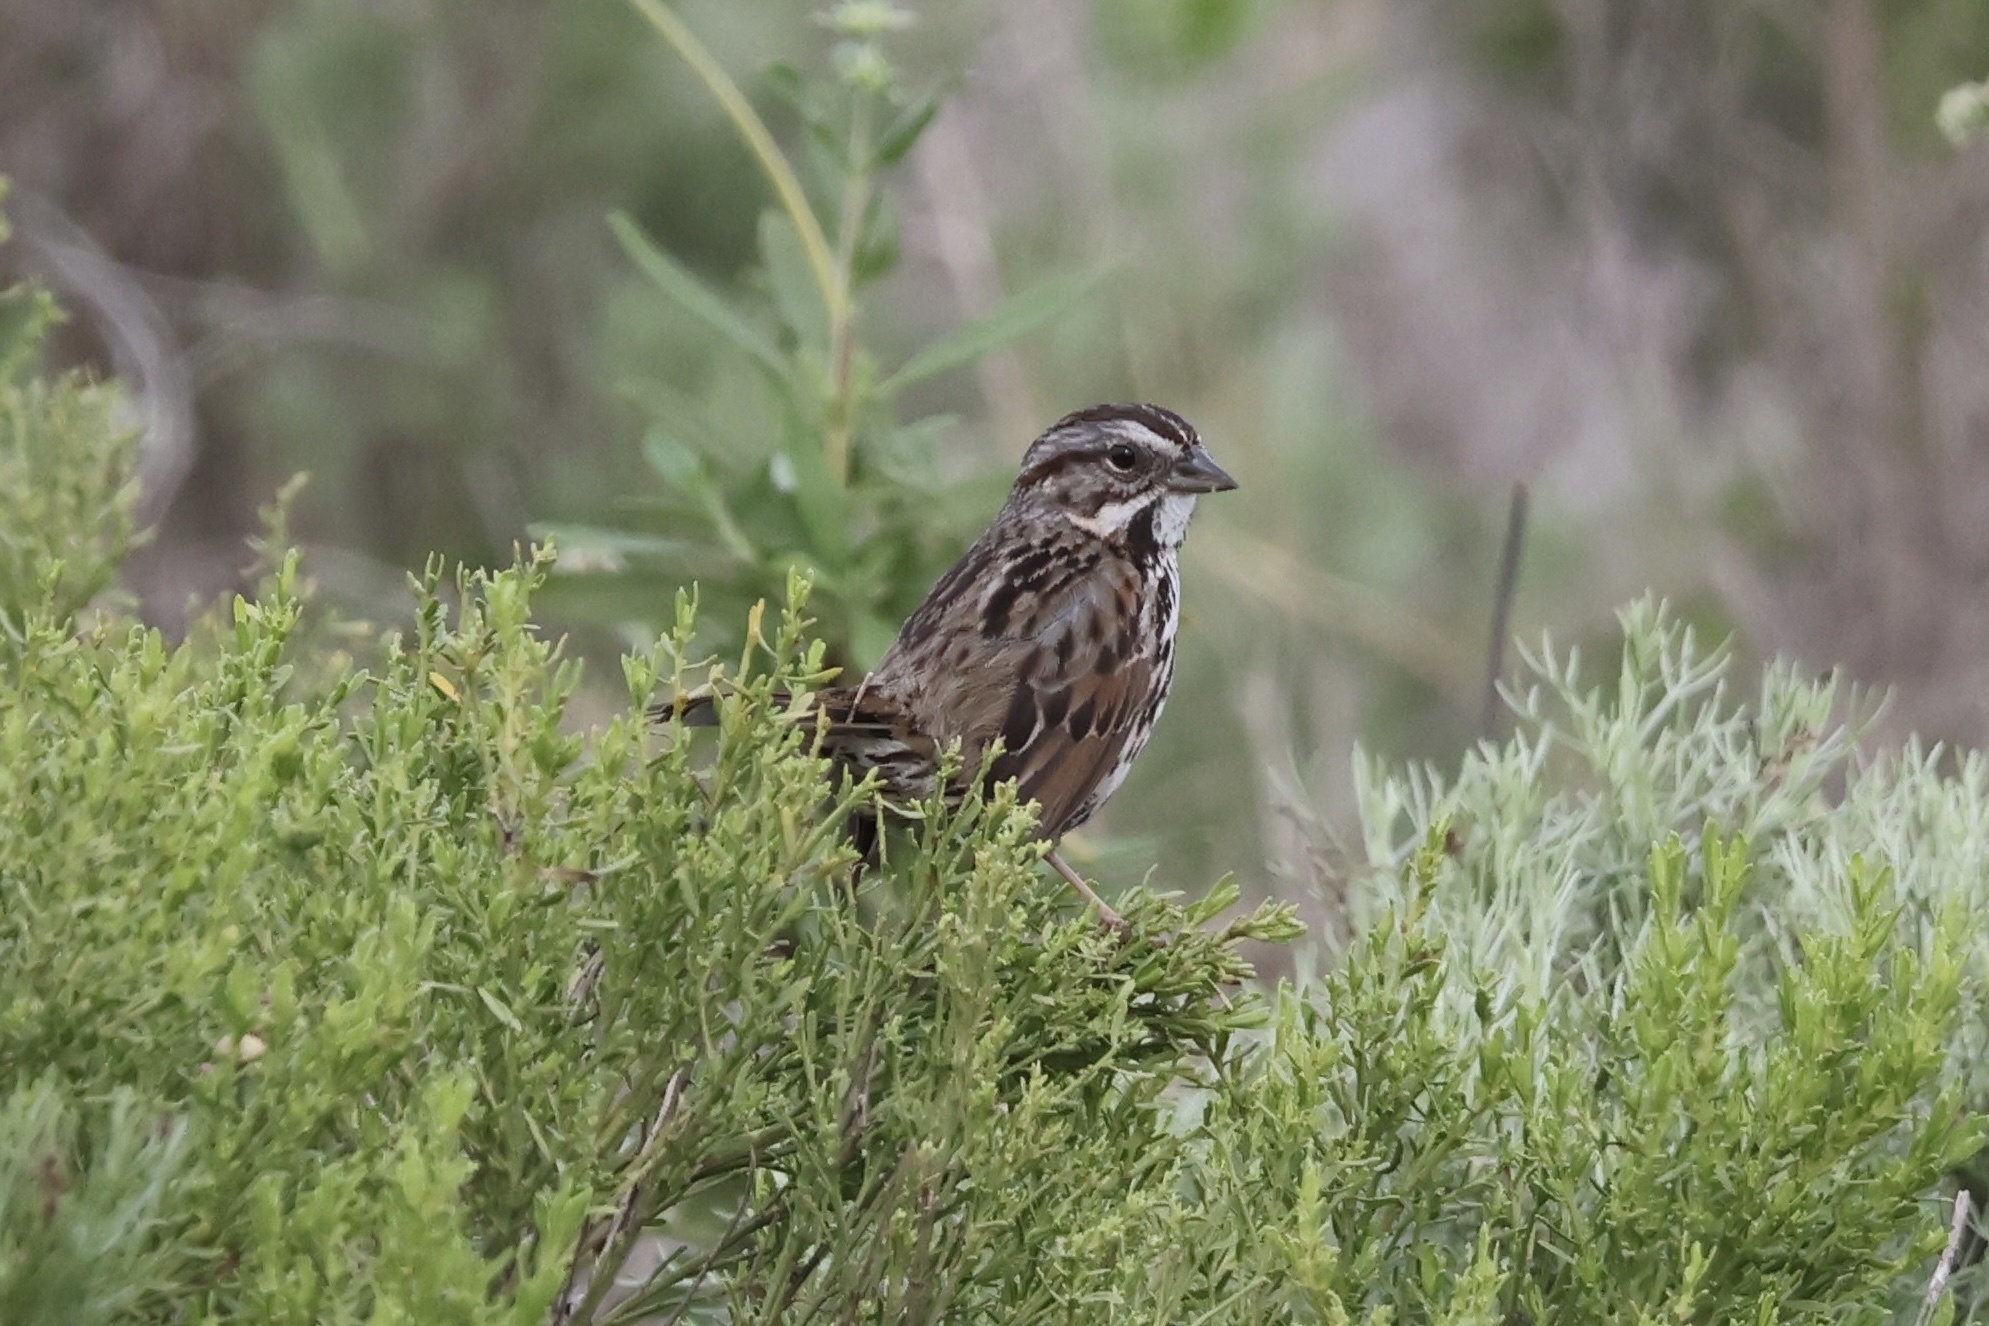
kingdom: Animalia
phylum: Chordata
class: Aves
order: Passeriformes
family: Passerellidae
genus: Melospiza
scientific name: Melospiza melodia
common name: Song sparrow
